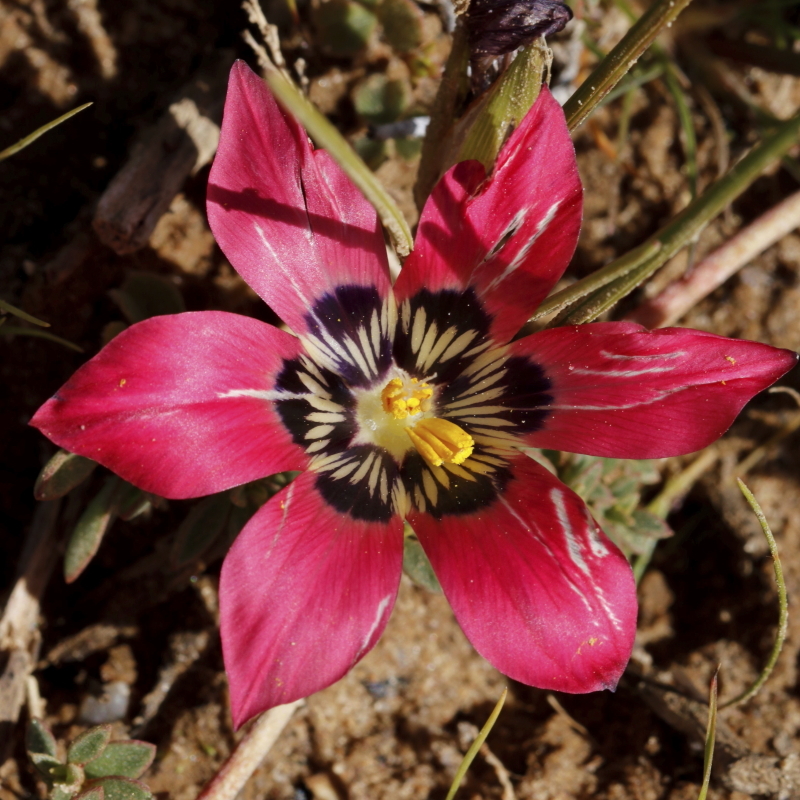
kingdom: Plantae
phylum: Tracheophyta
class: Liliopsida
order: Asparagales
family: Iridaceae
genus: Romulea
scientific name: Romulea pudica
